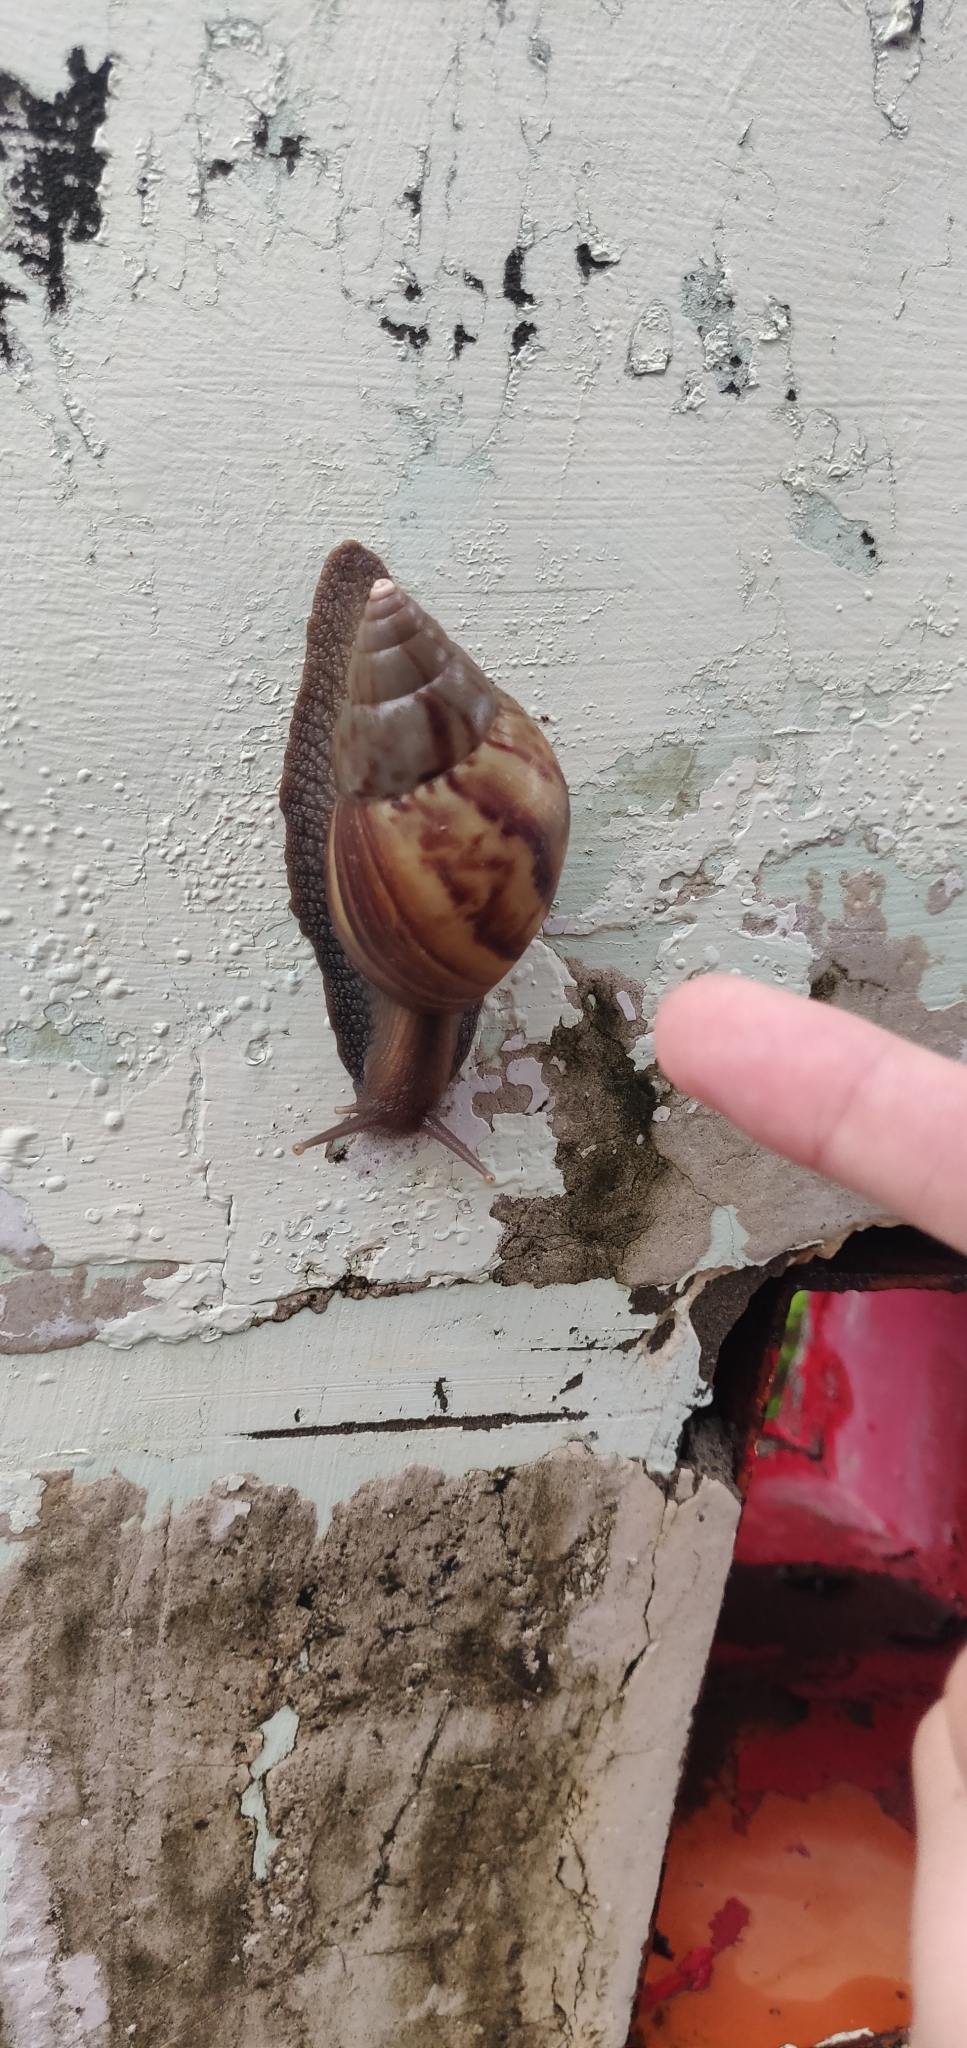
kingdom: Animalia
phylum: Mollusca
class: Gastropoda
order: Stylommatophora
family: Achatinidae
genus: Lissachatina
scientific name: Lissachatina fulica
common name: Giant african snail
